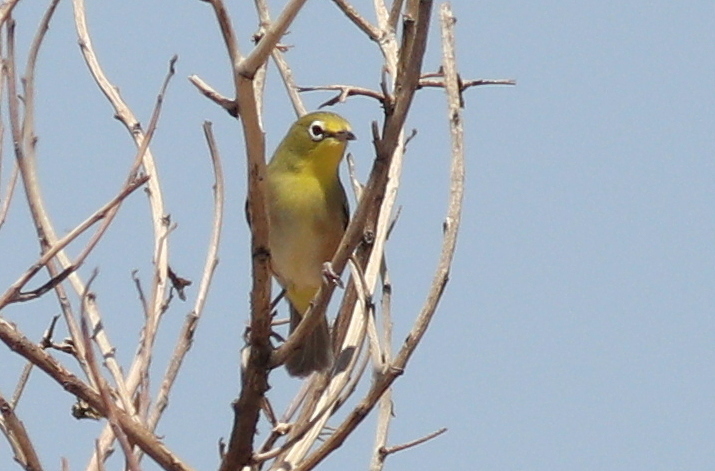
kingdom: Animalia
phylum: Chordata
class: Aves
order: Passeriformes
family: Zosteropidae
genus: Zosterops
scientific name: Zosterops pallidus
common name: Orange river white-eye
